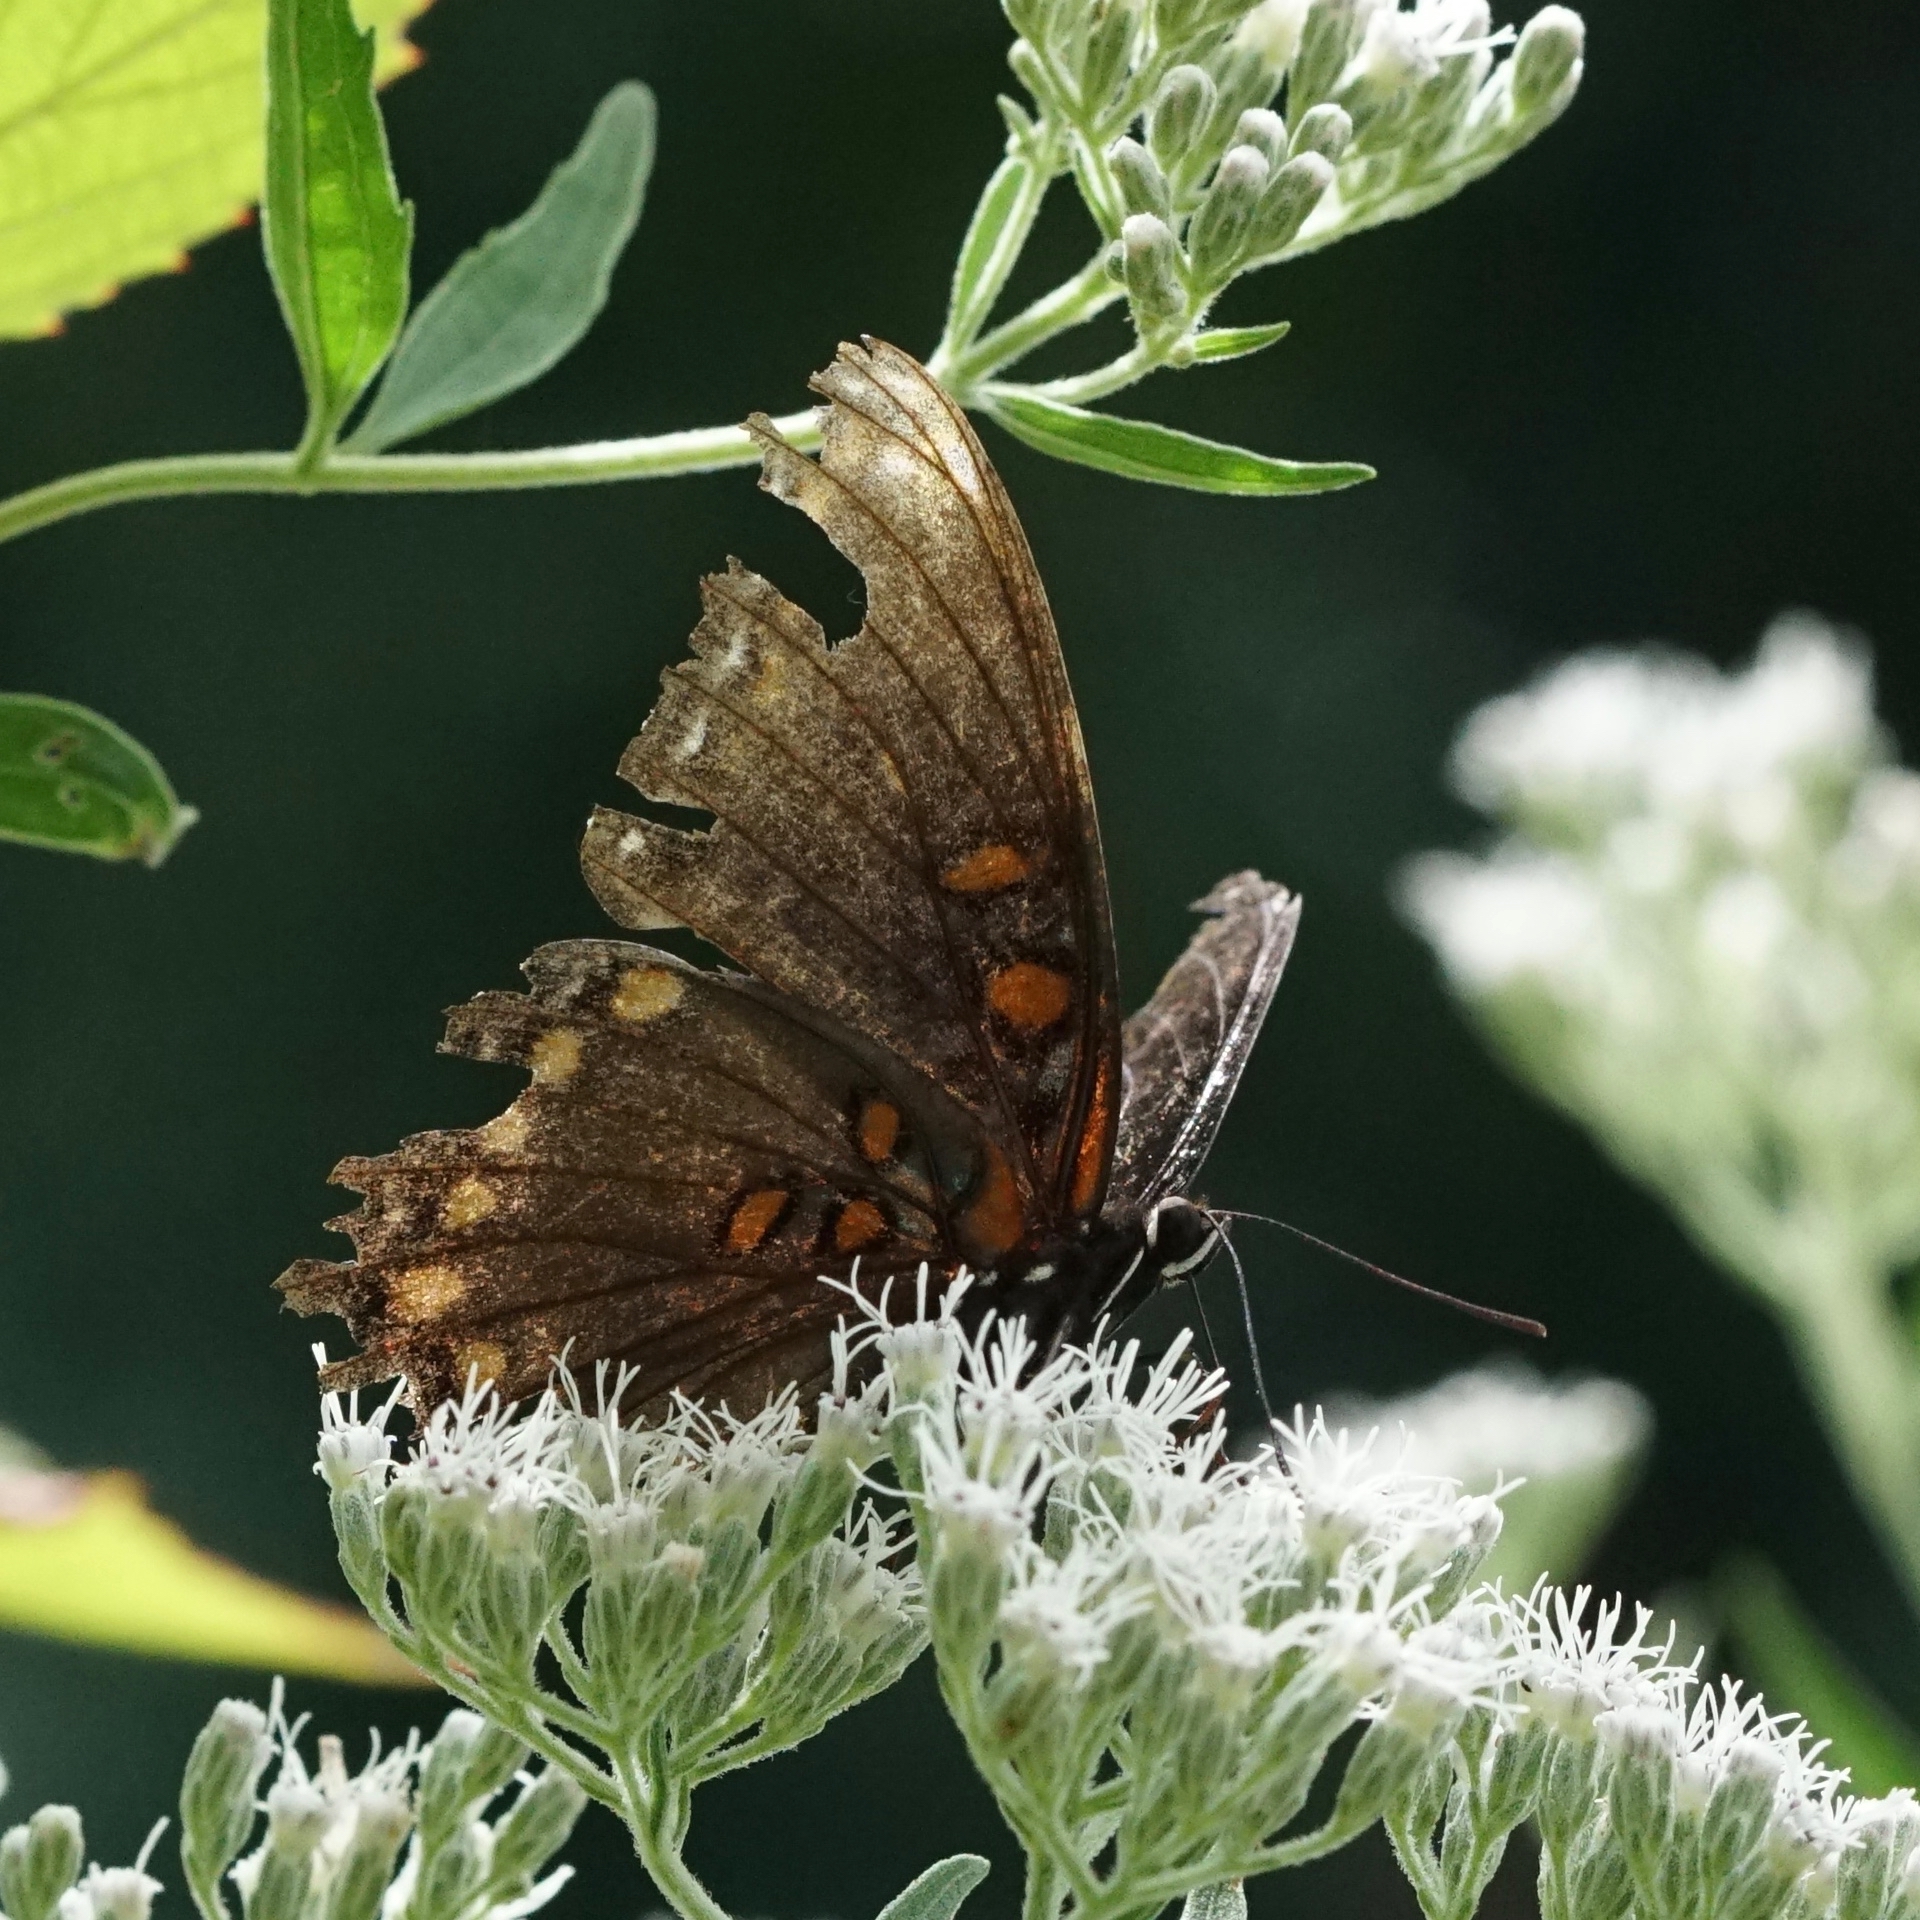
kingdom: Animalia
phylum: Arthropoda
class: Insecta
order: Lepidoptera
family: Nymphalidae
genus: Limenitis
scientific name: Limenitis arthemis
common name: Red-spotted admiral
